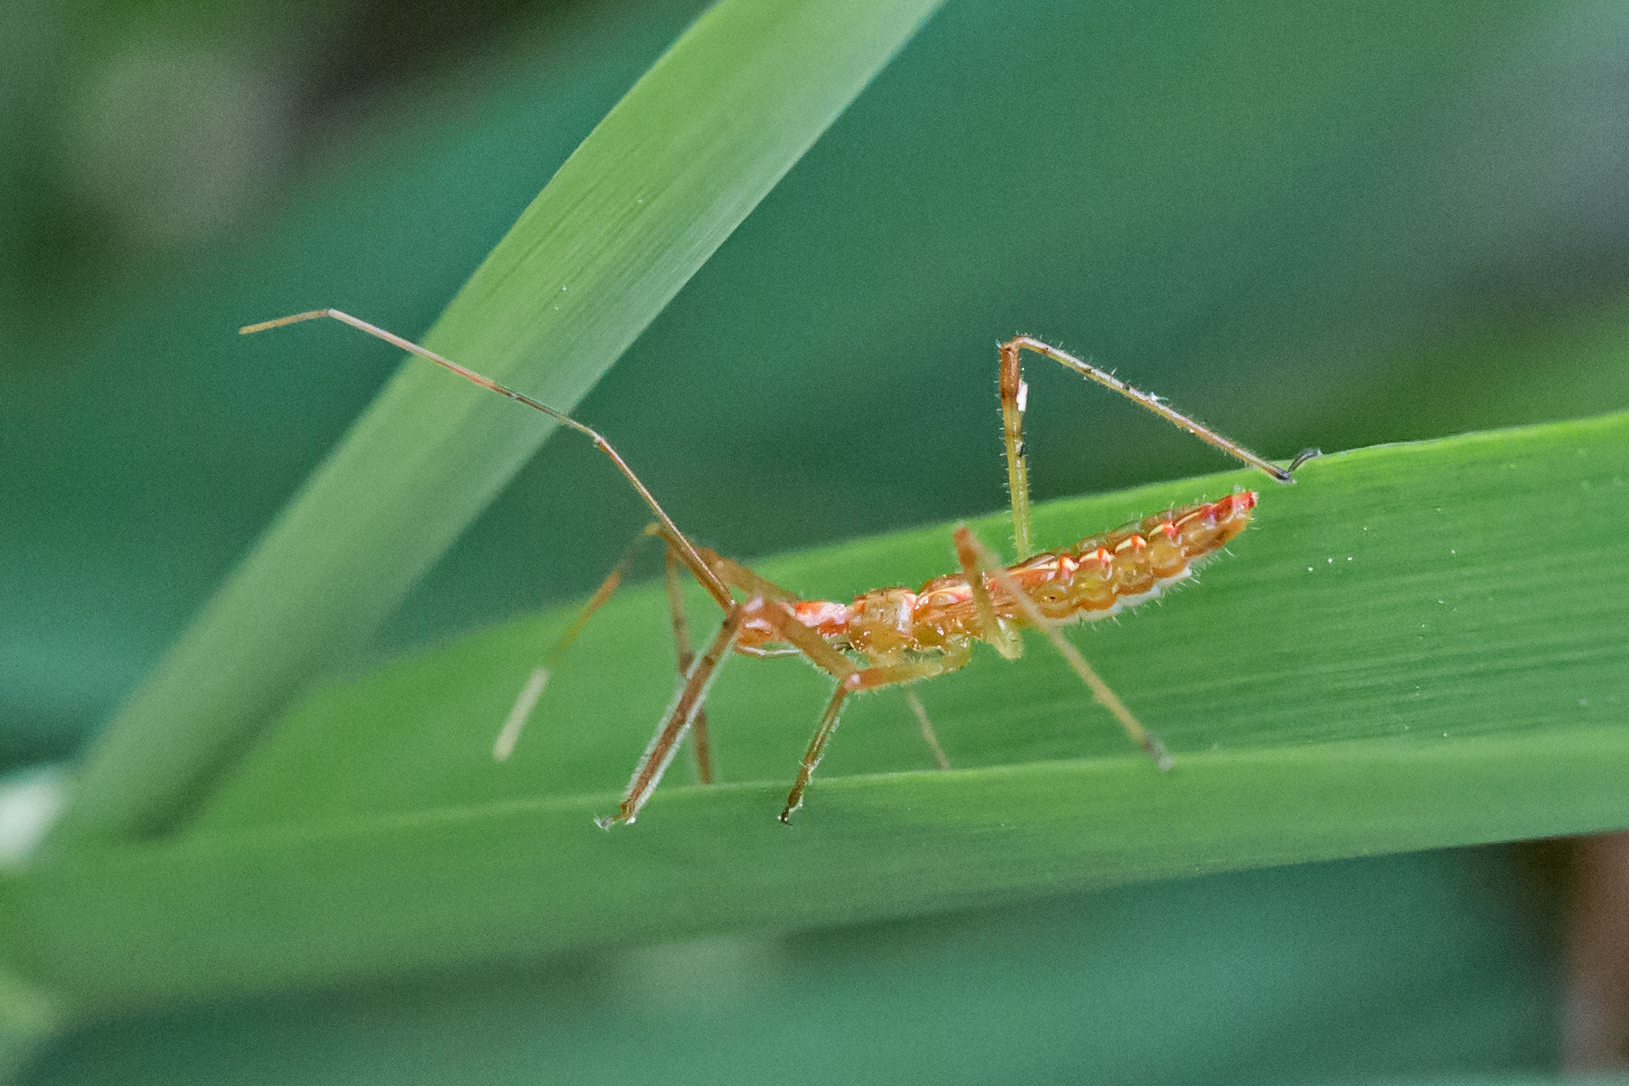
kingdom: Animalia
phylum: Arthropoda
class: Insecta
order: Hemiptera
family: Reduviidae
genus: Zelus
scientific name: Zelus luridus
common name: Pale green assassin bug
